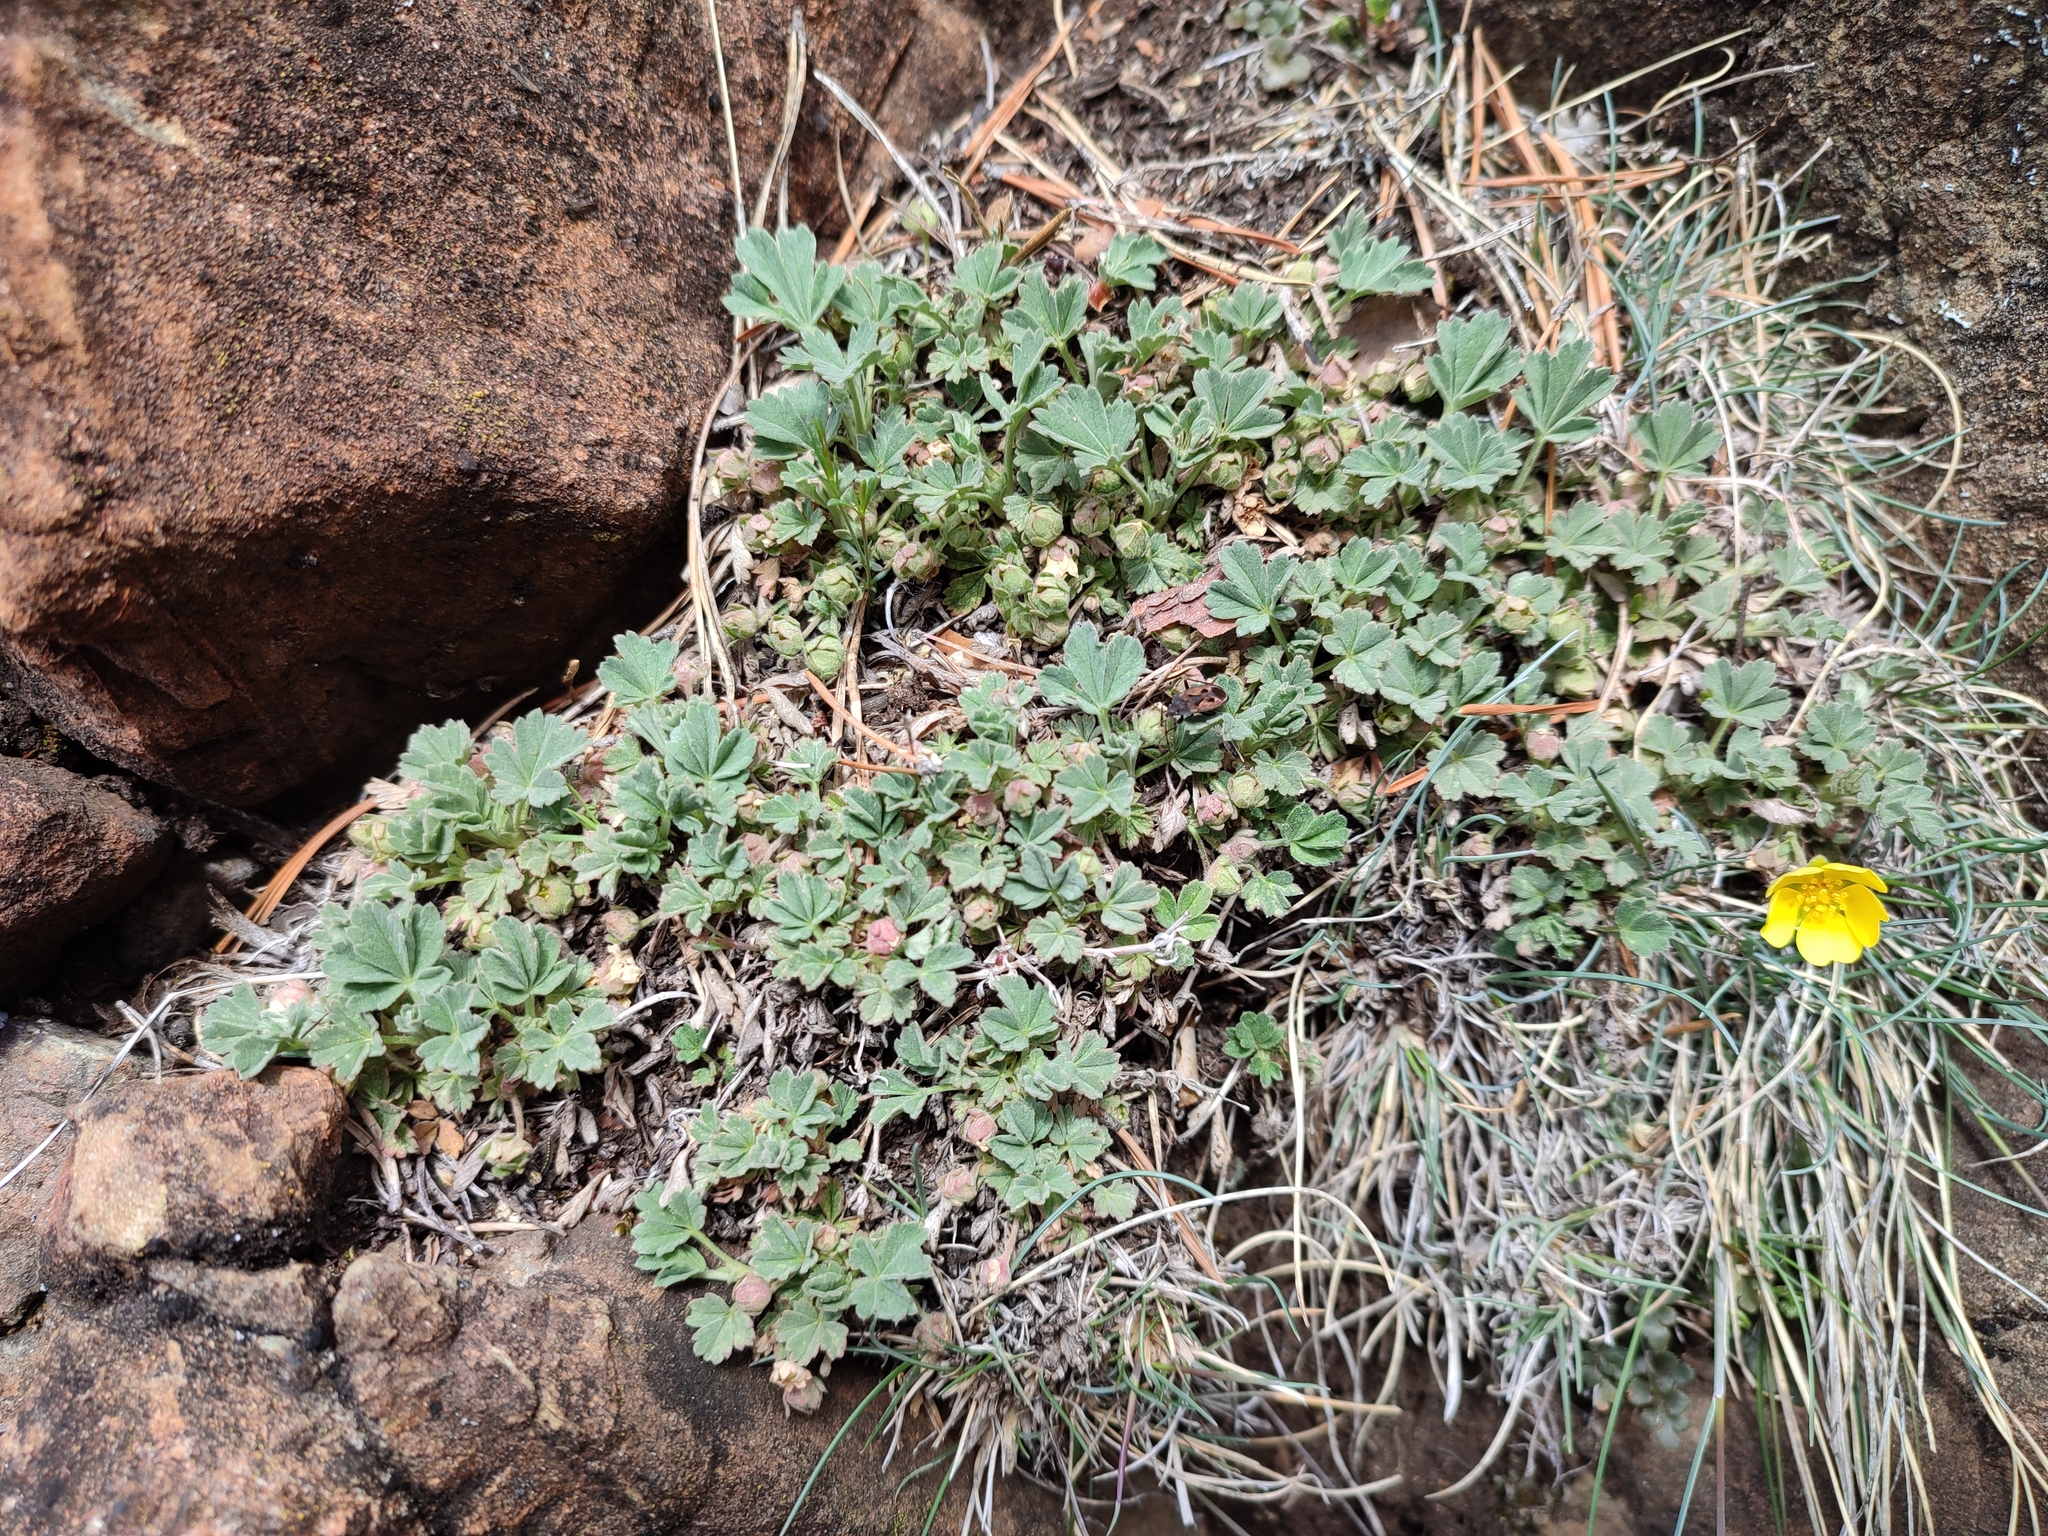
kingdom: Plantae
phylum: Tracheophyta
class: Magnoliopsida
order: Rosales
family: Rosaceae
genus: Potentilla
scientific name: Potentilla incana
